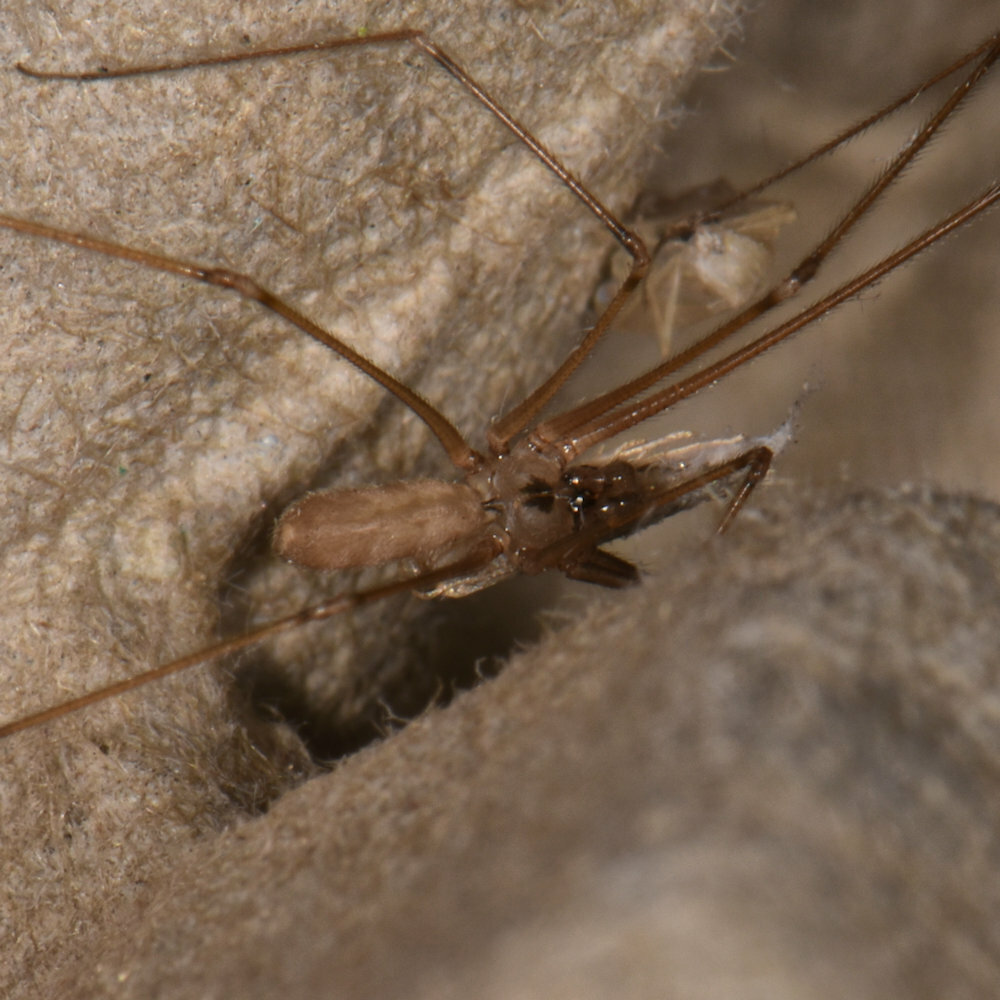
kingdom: Animalia
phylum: Arthropoda
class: Arachnida
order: Araneae
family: Pholcidae
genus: Pholcus
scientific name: Pholcus phalangioides
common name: Longbodied cellar spider
